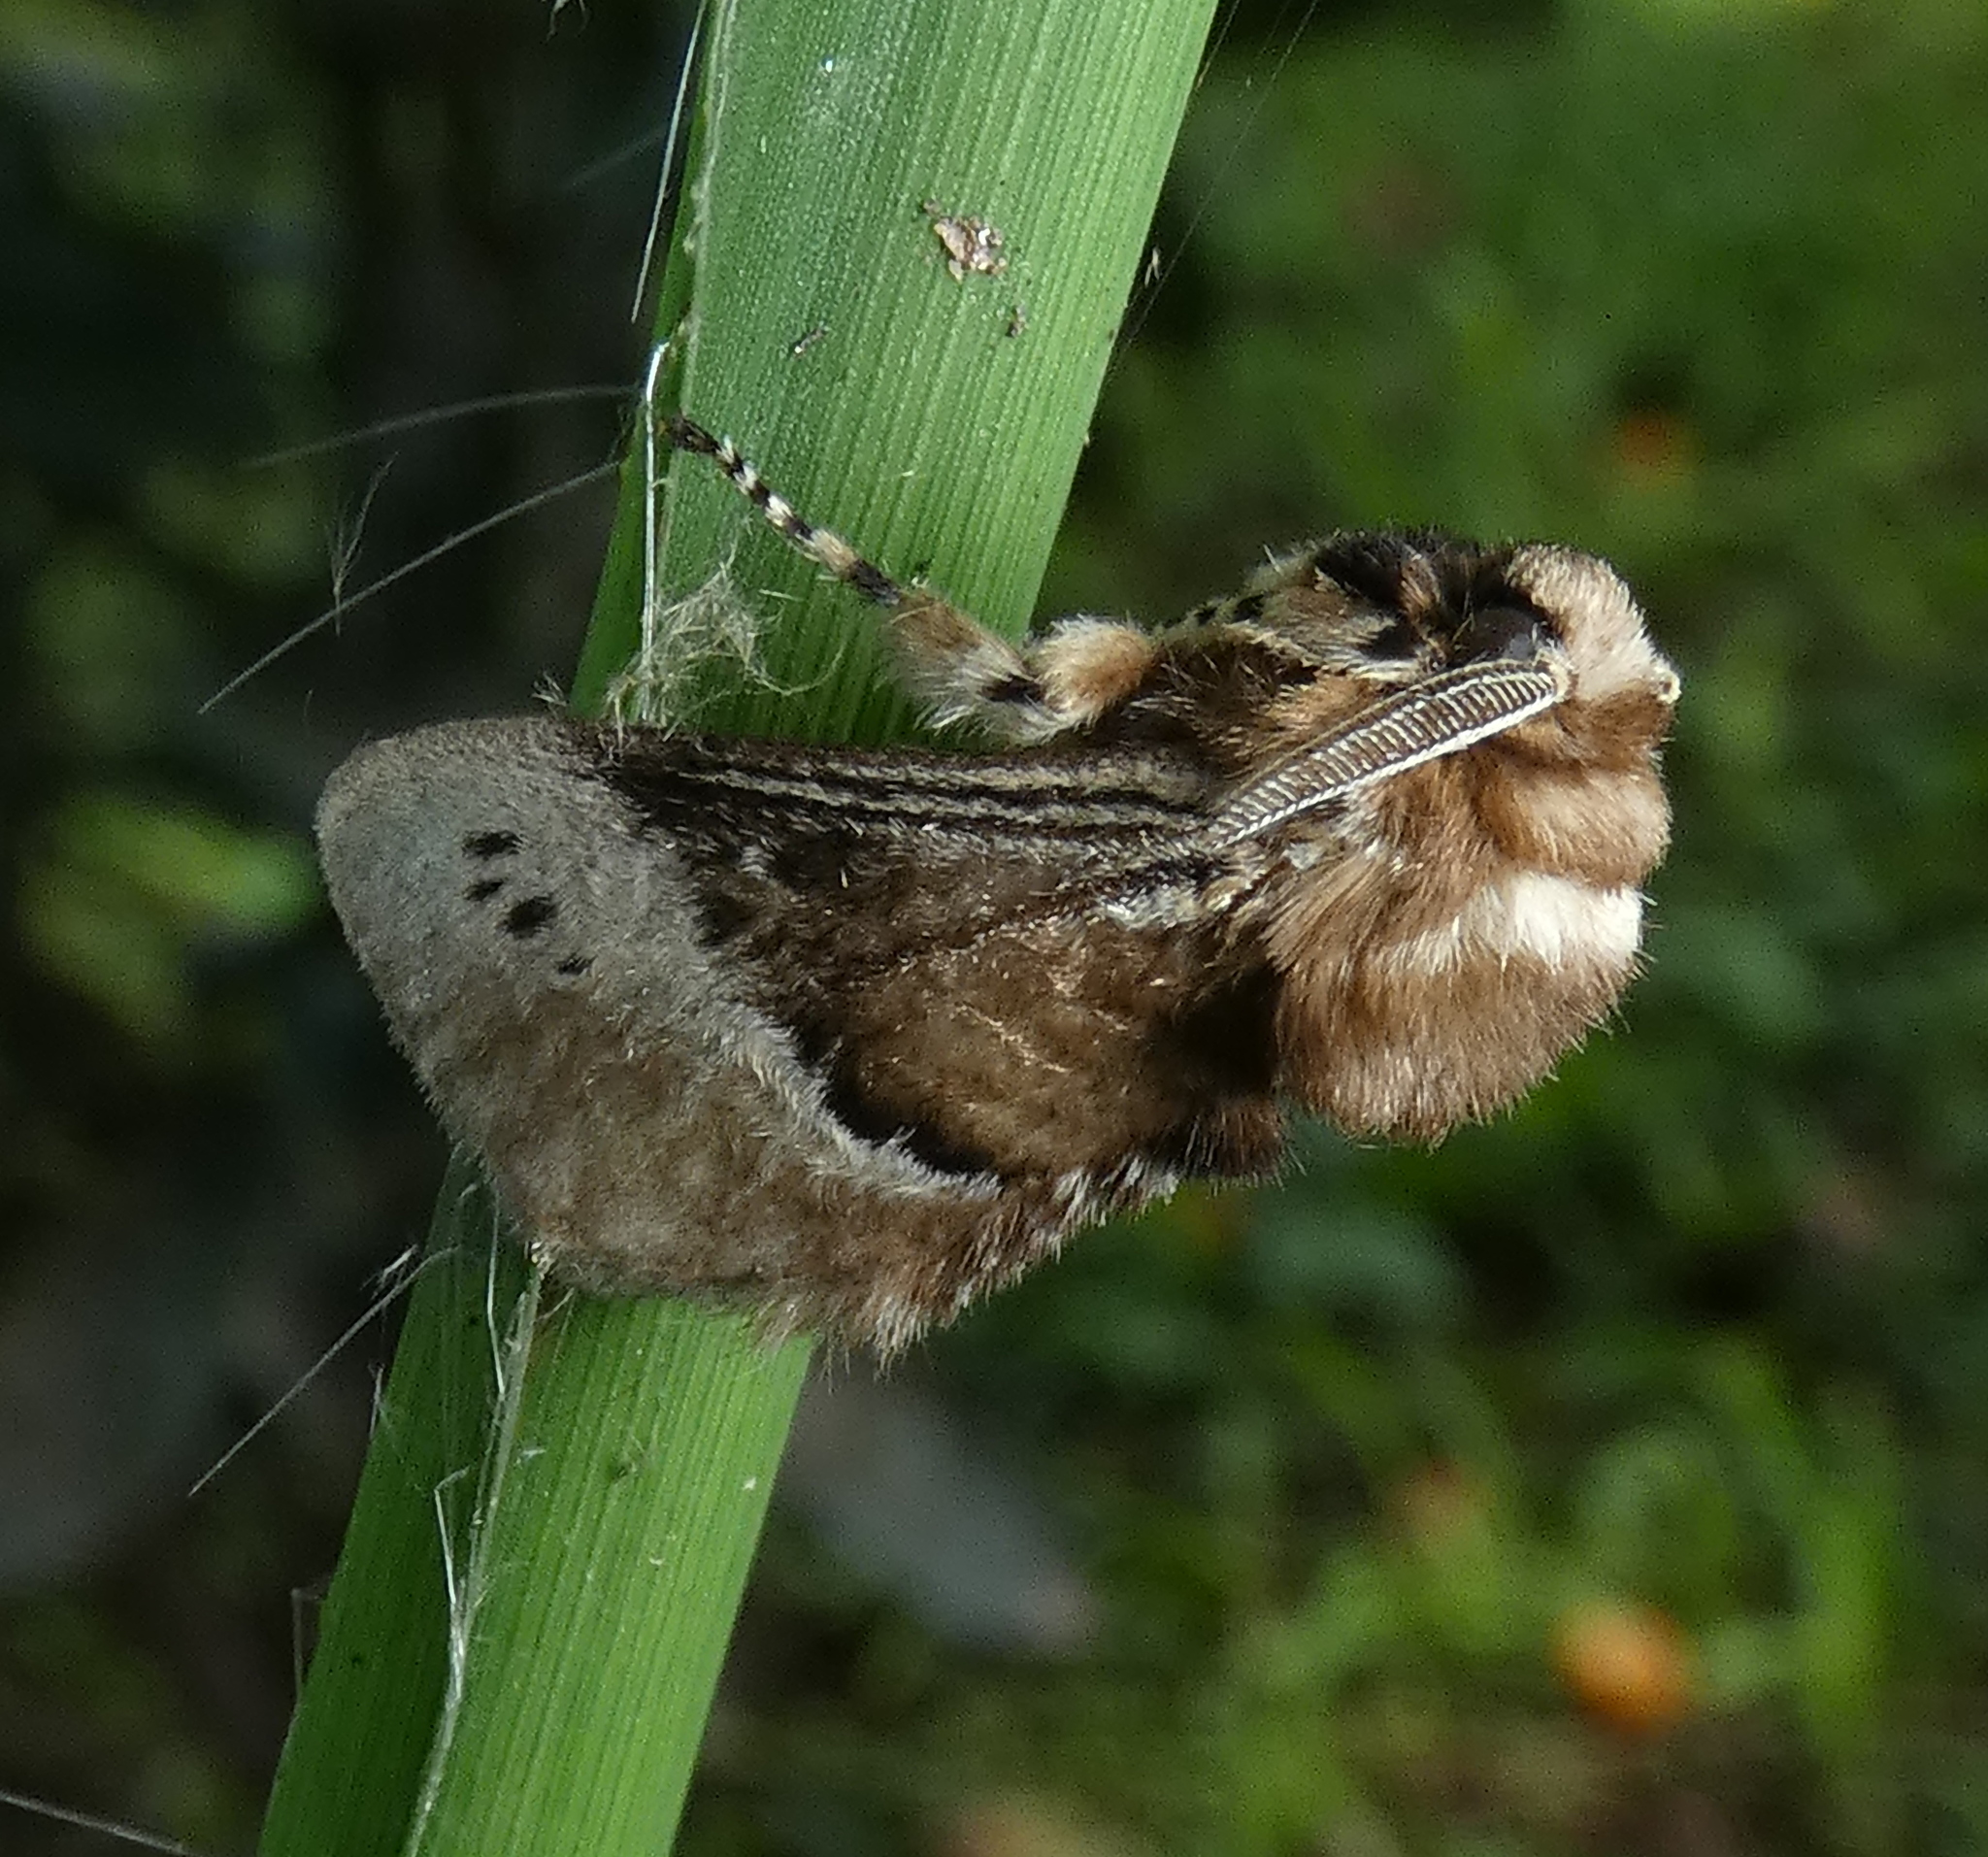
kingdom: Animalia
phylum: Arthropoda
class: Insecta
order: Lepidoptera
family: Megalopygidae
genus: Podalia
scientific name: Podalia guaya
